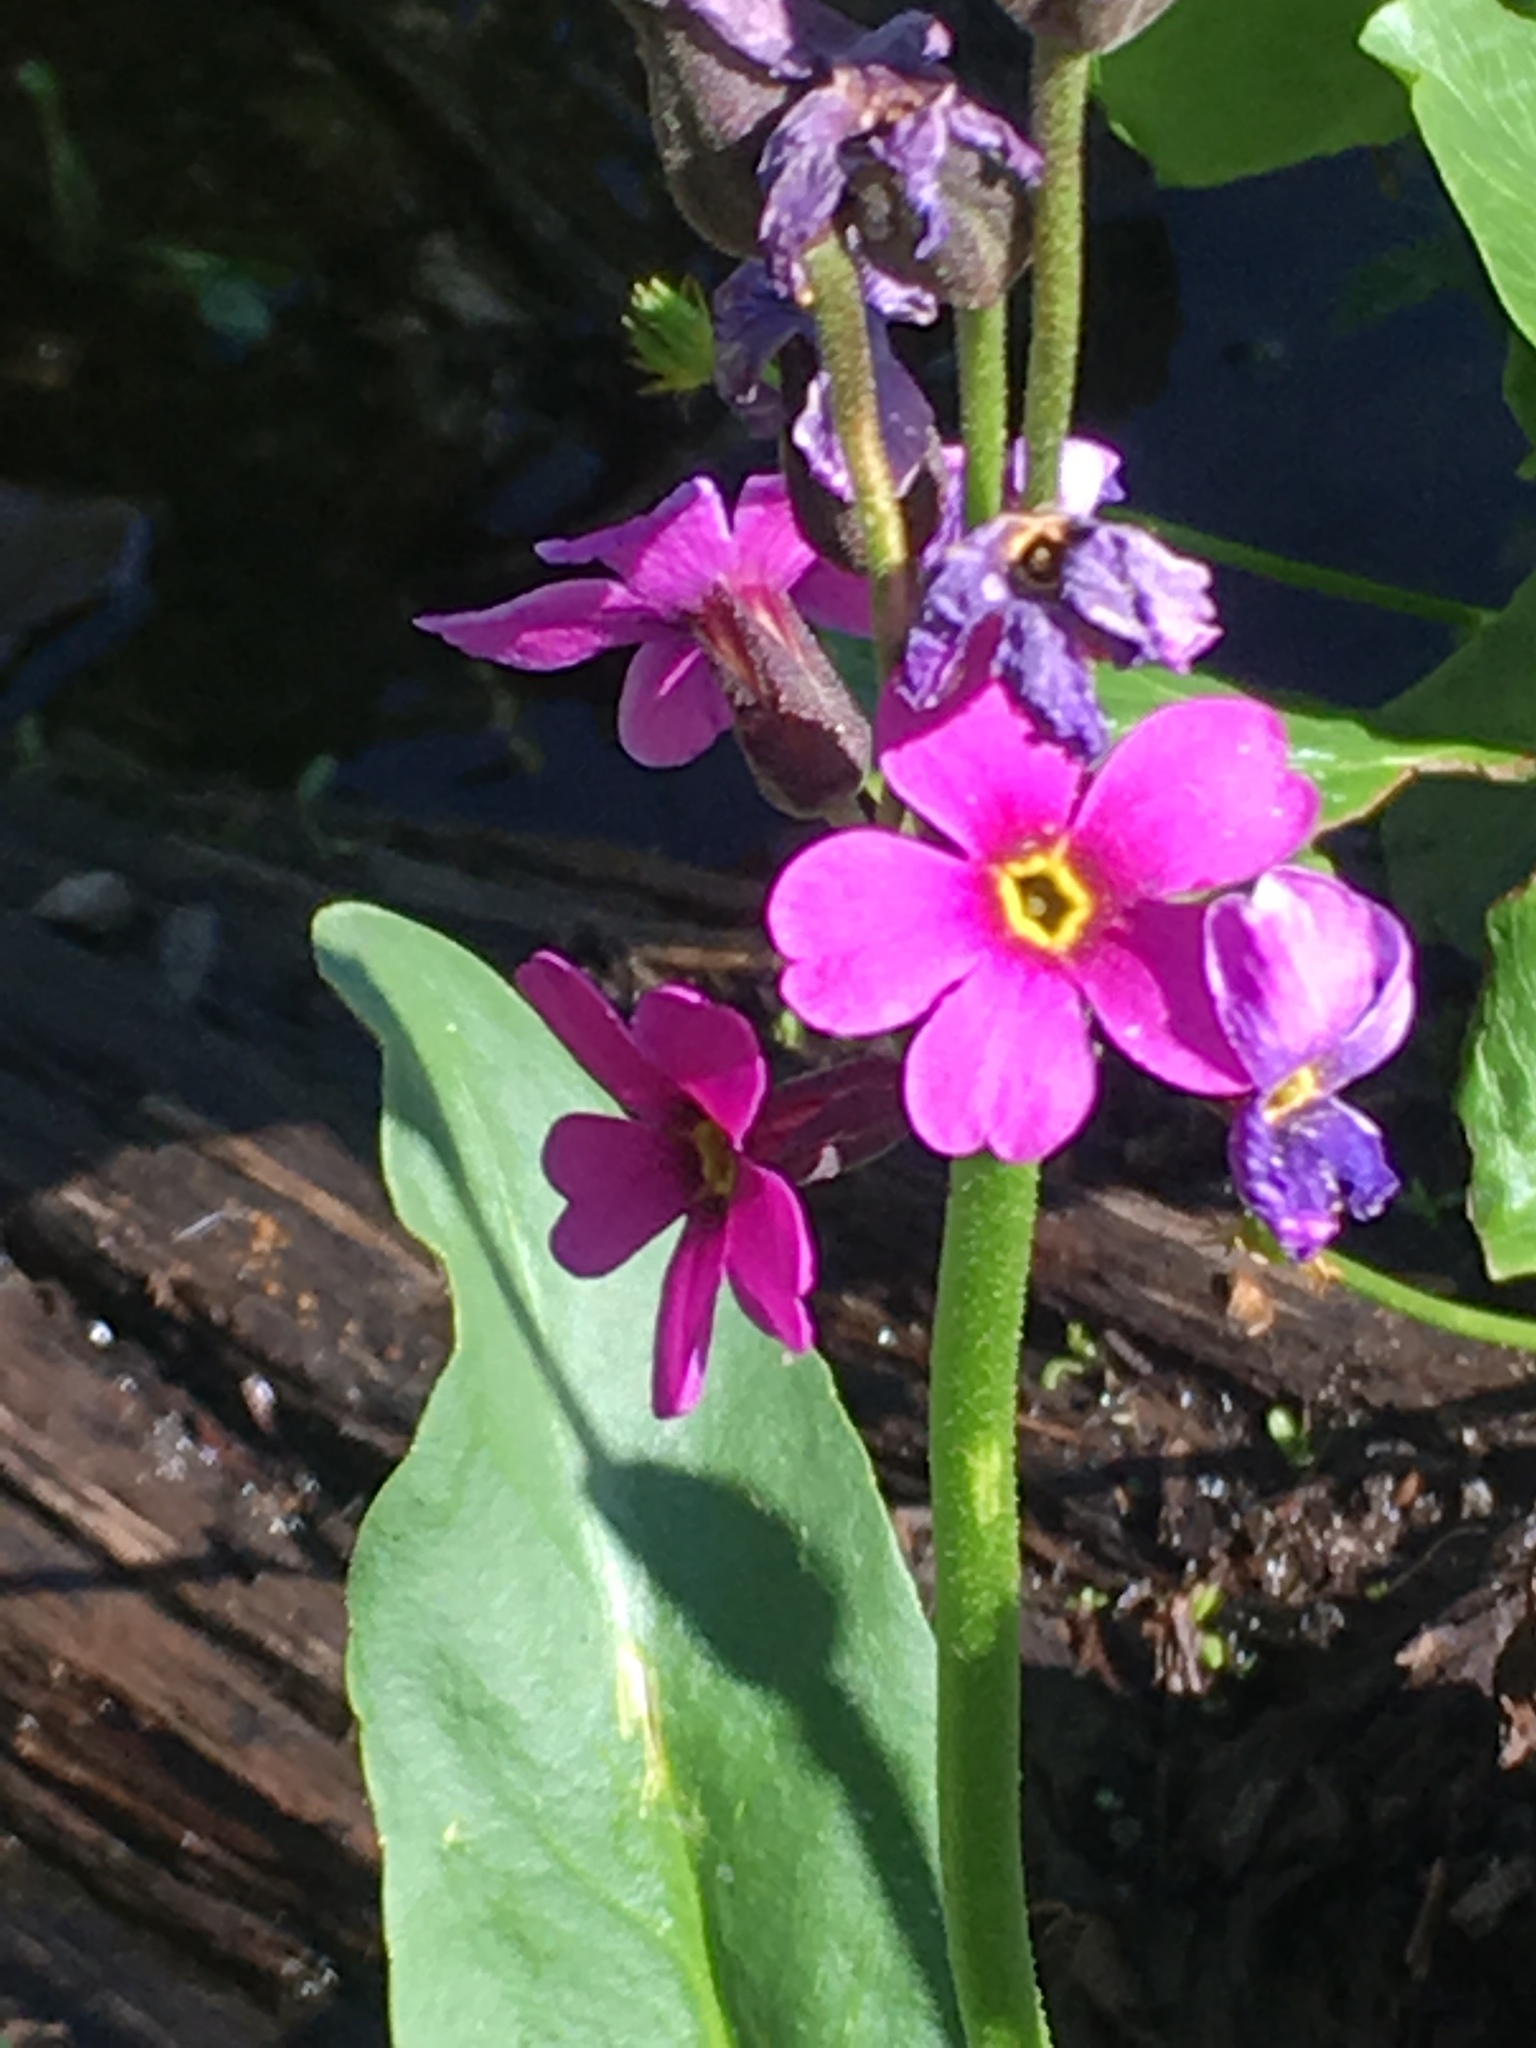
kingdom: Plantae
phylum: Tracheophyta
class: Magnoliopsida
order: Ericales
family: Primulaceae
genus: Primula
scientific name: Primula parryi
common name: Parry's primrose
